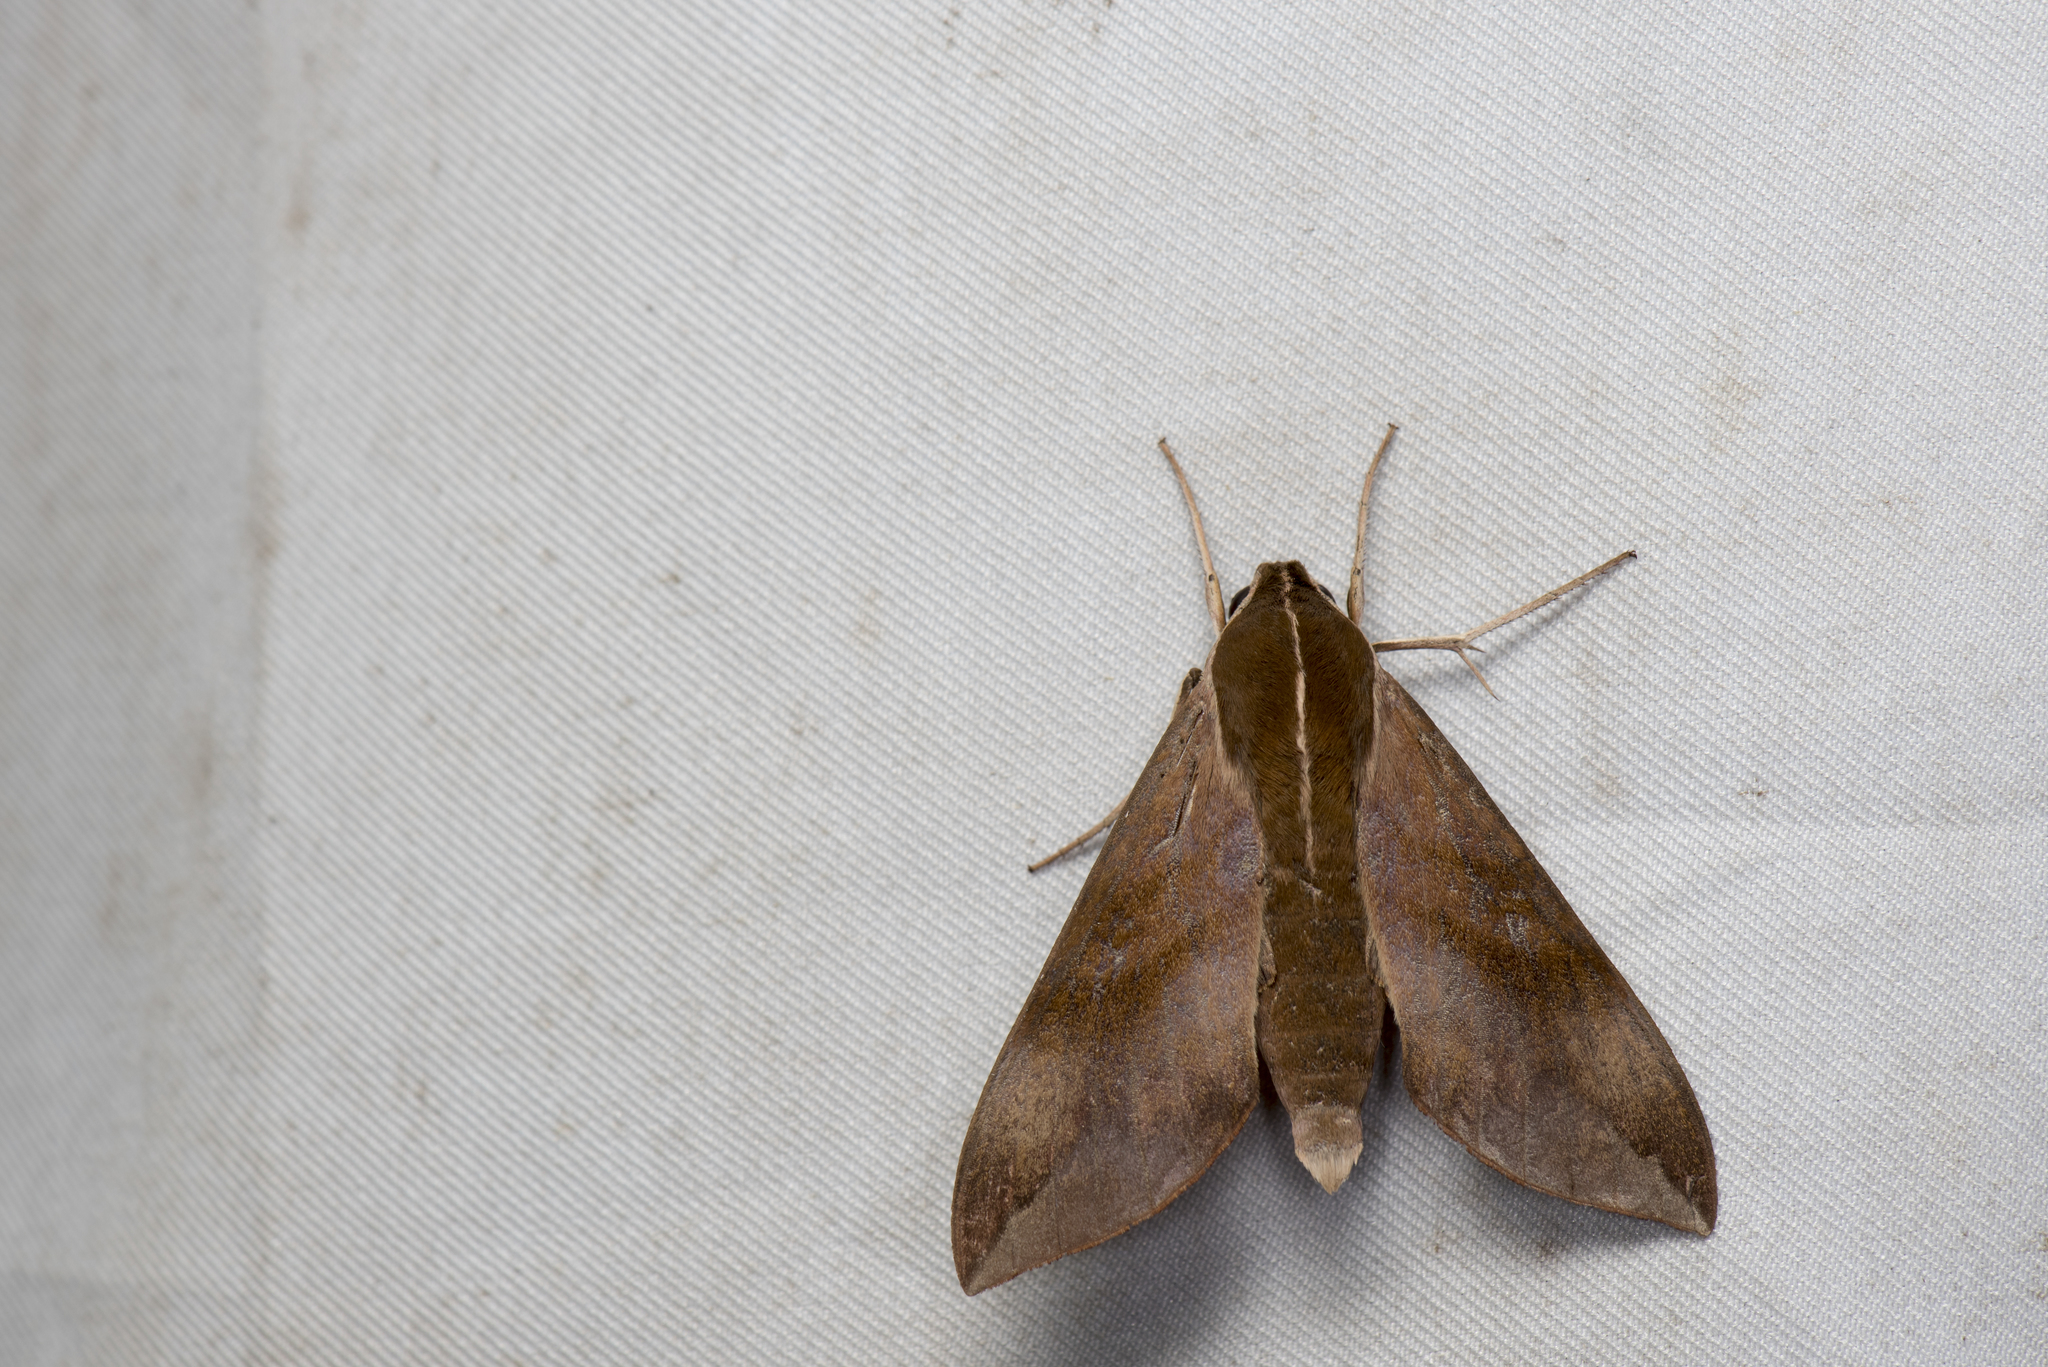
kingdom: Animalia
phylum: Arthropoda
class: Insecta
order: Lepidoptera
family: Sphingidae
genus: Ampelophaga
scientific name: Ampelophaga rubiginosa
